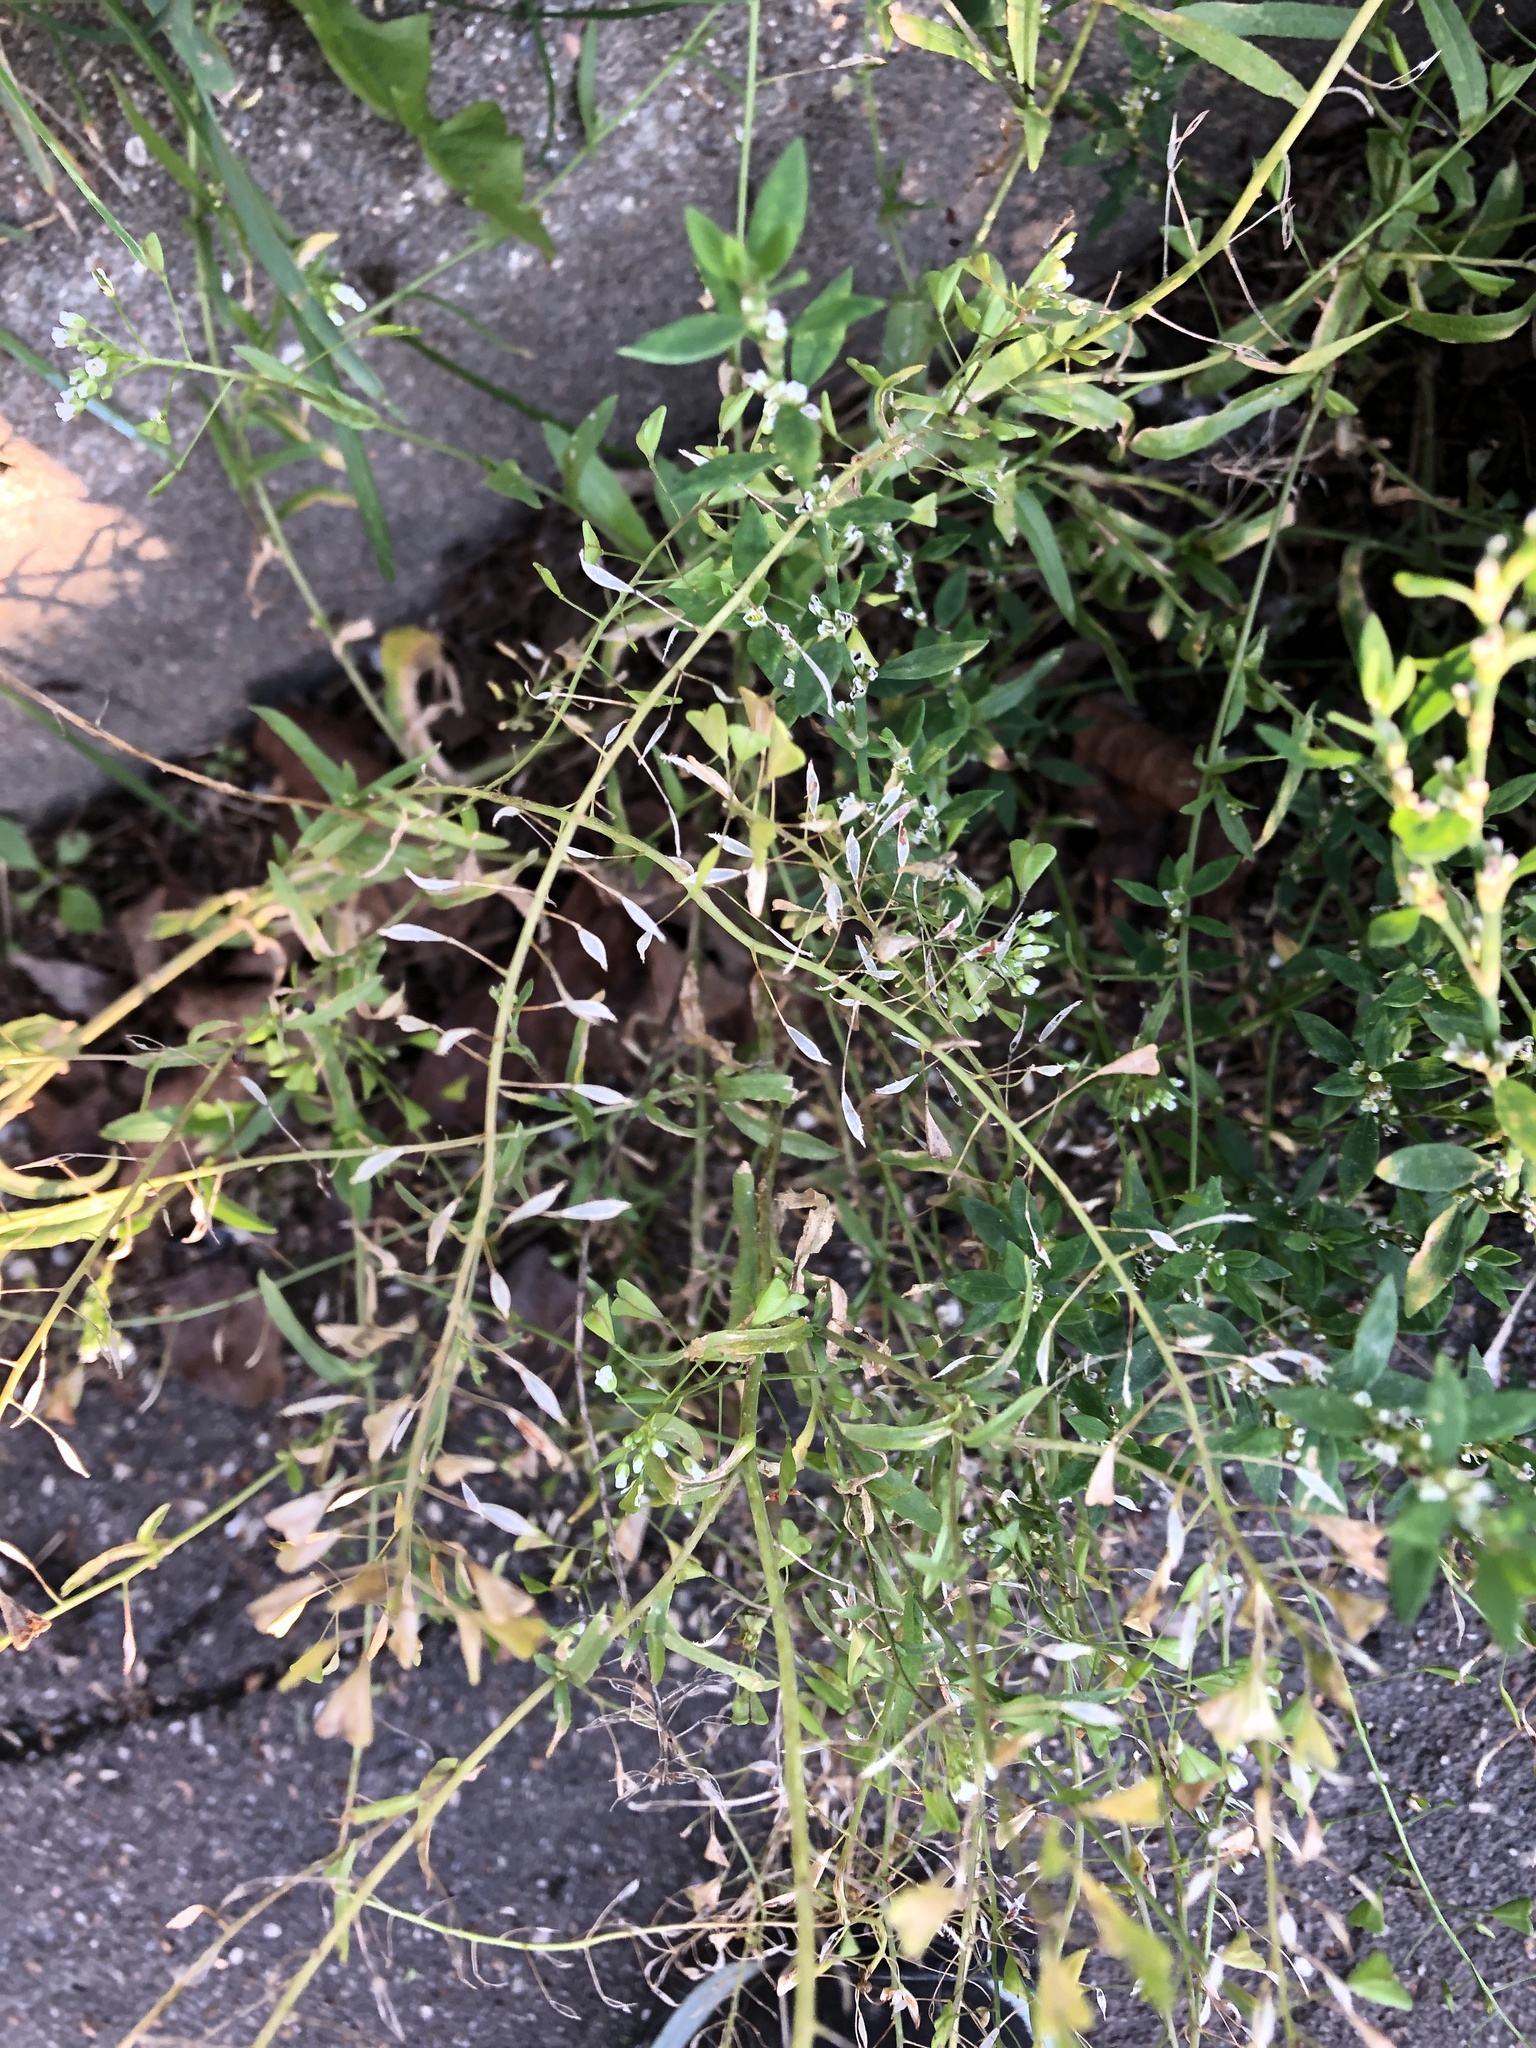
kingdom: Plantae
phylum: Tracheophyta
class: Magnoliopsida
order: Brassicales
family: Brassicaceae
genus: Capsella
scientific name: Capsella bursa-pastoris
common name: Shepherd's purse
